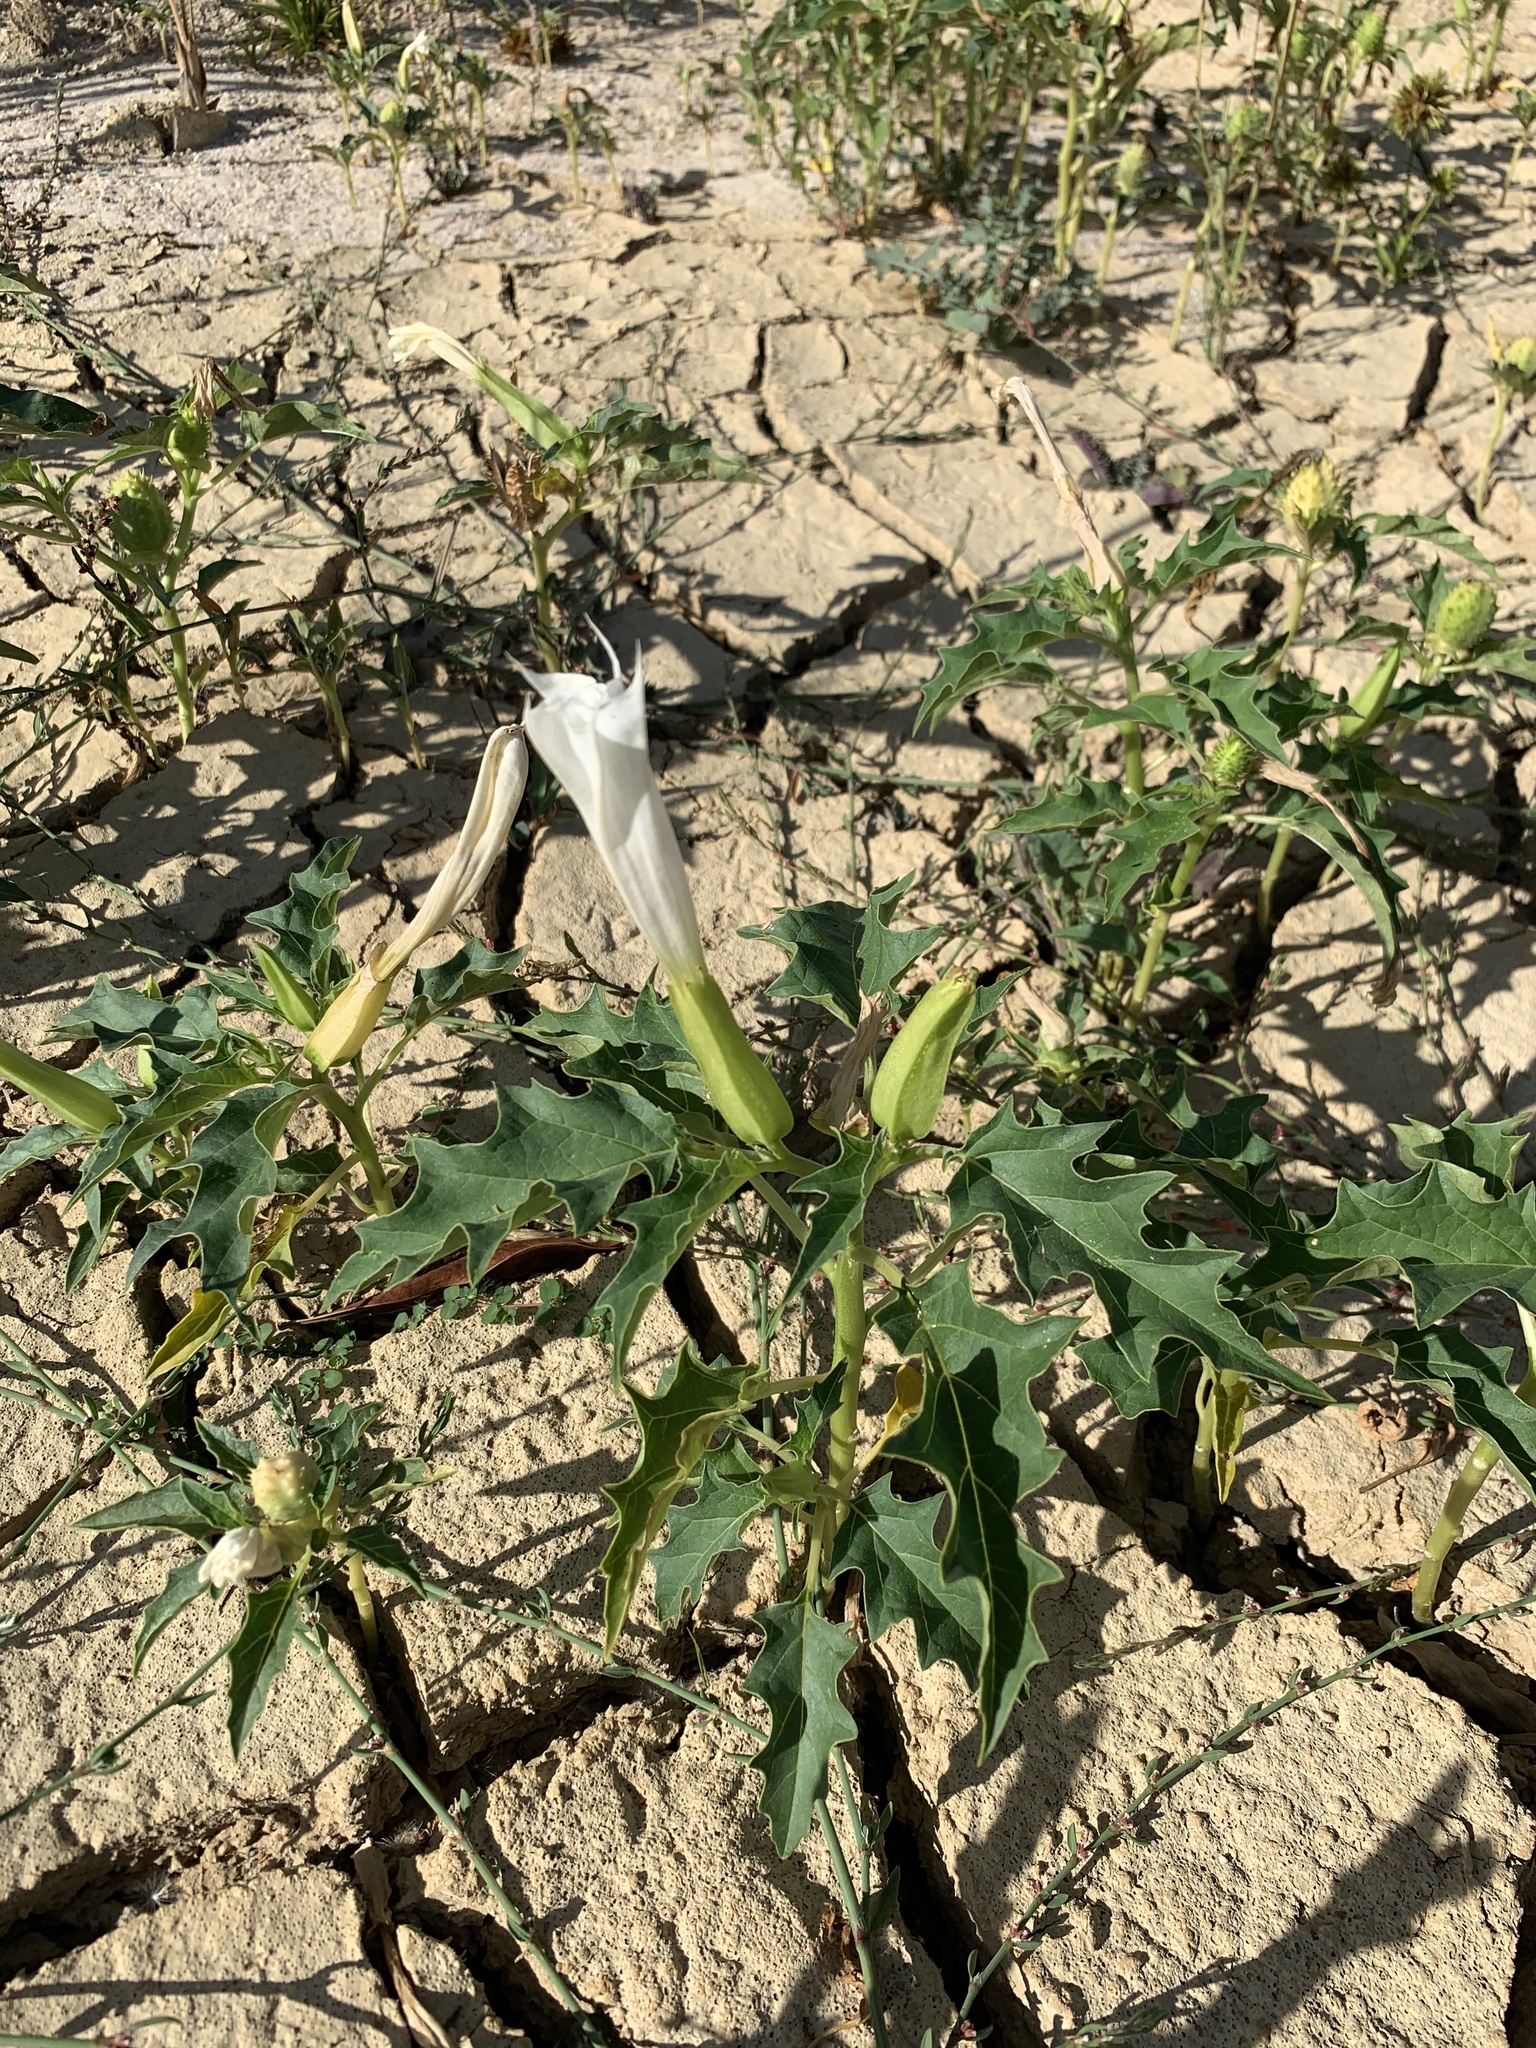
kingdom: Plantae
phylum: Tracheophyta
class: Magnoliopsida
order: Solanales
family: Solanaceae
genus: Datura
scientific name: Datura stramonium
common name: Thorn-apple
